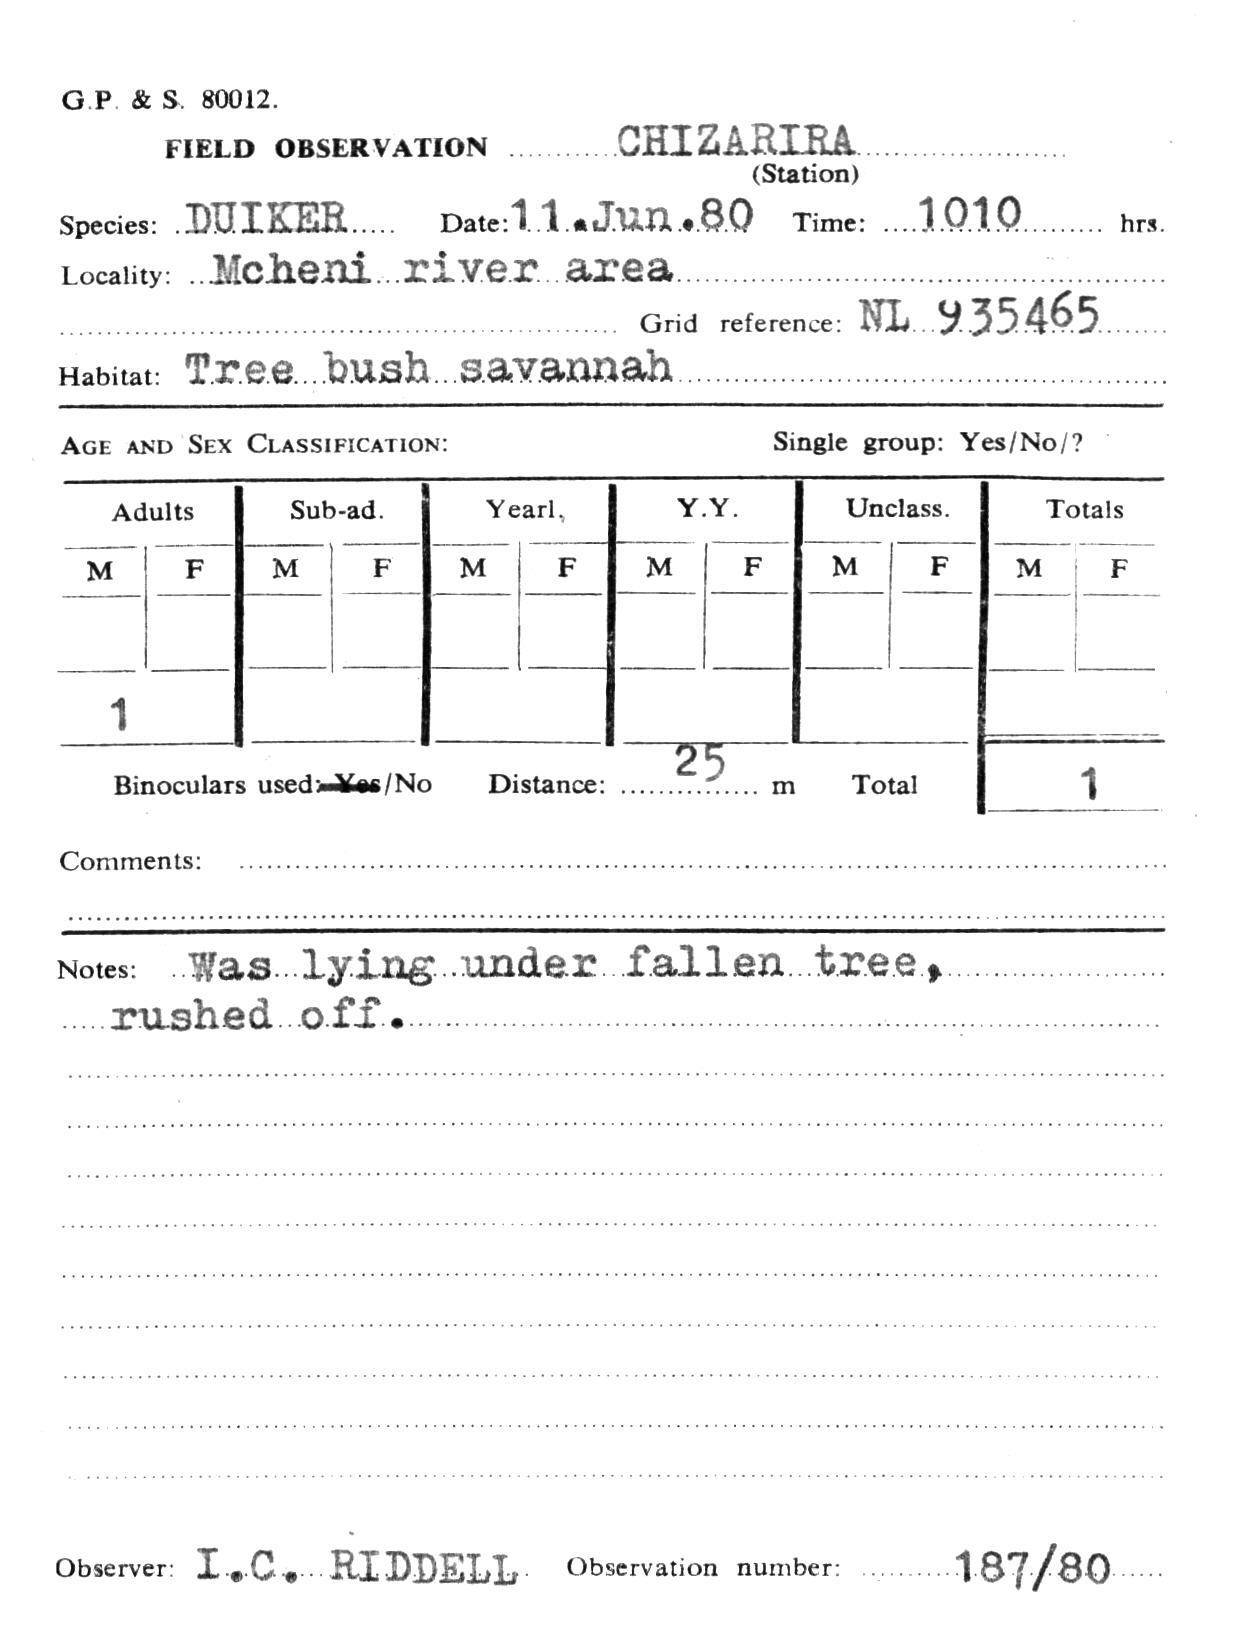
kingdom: Animalia
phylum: Chordata
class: Mammalia
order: Artiodactyla
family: Bovidae
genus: Sylvicapra
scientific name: Sylvicapra grimmia
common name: Bush duiker
